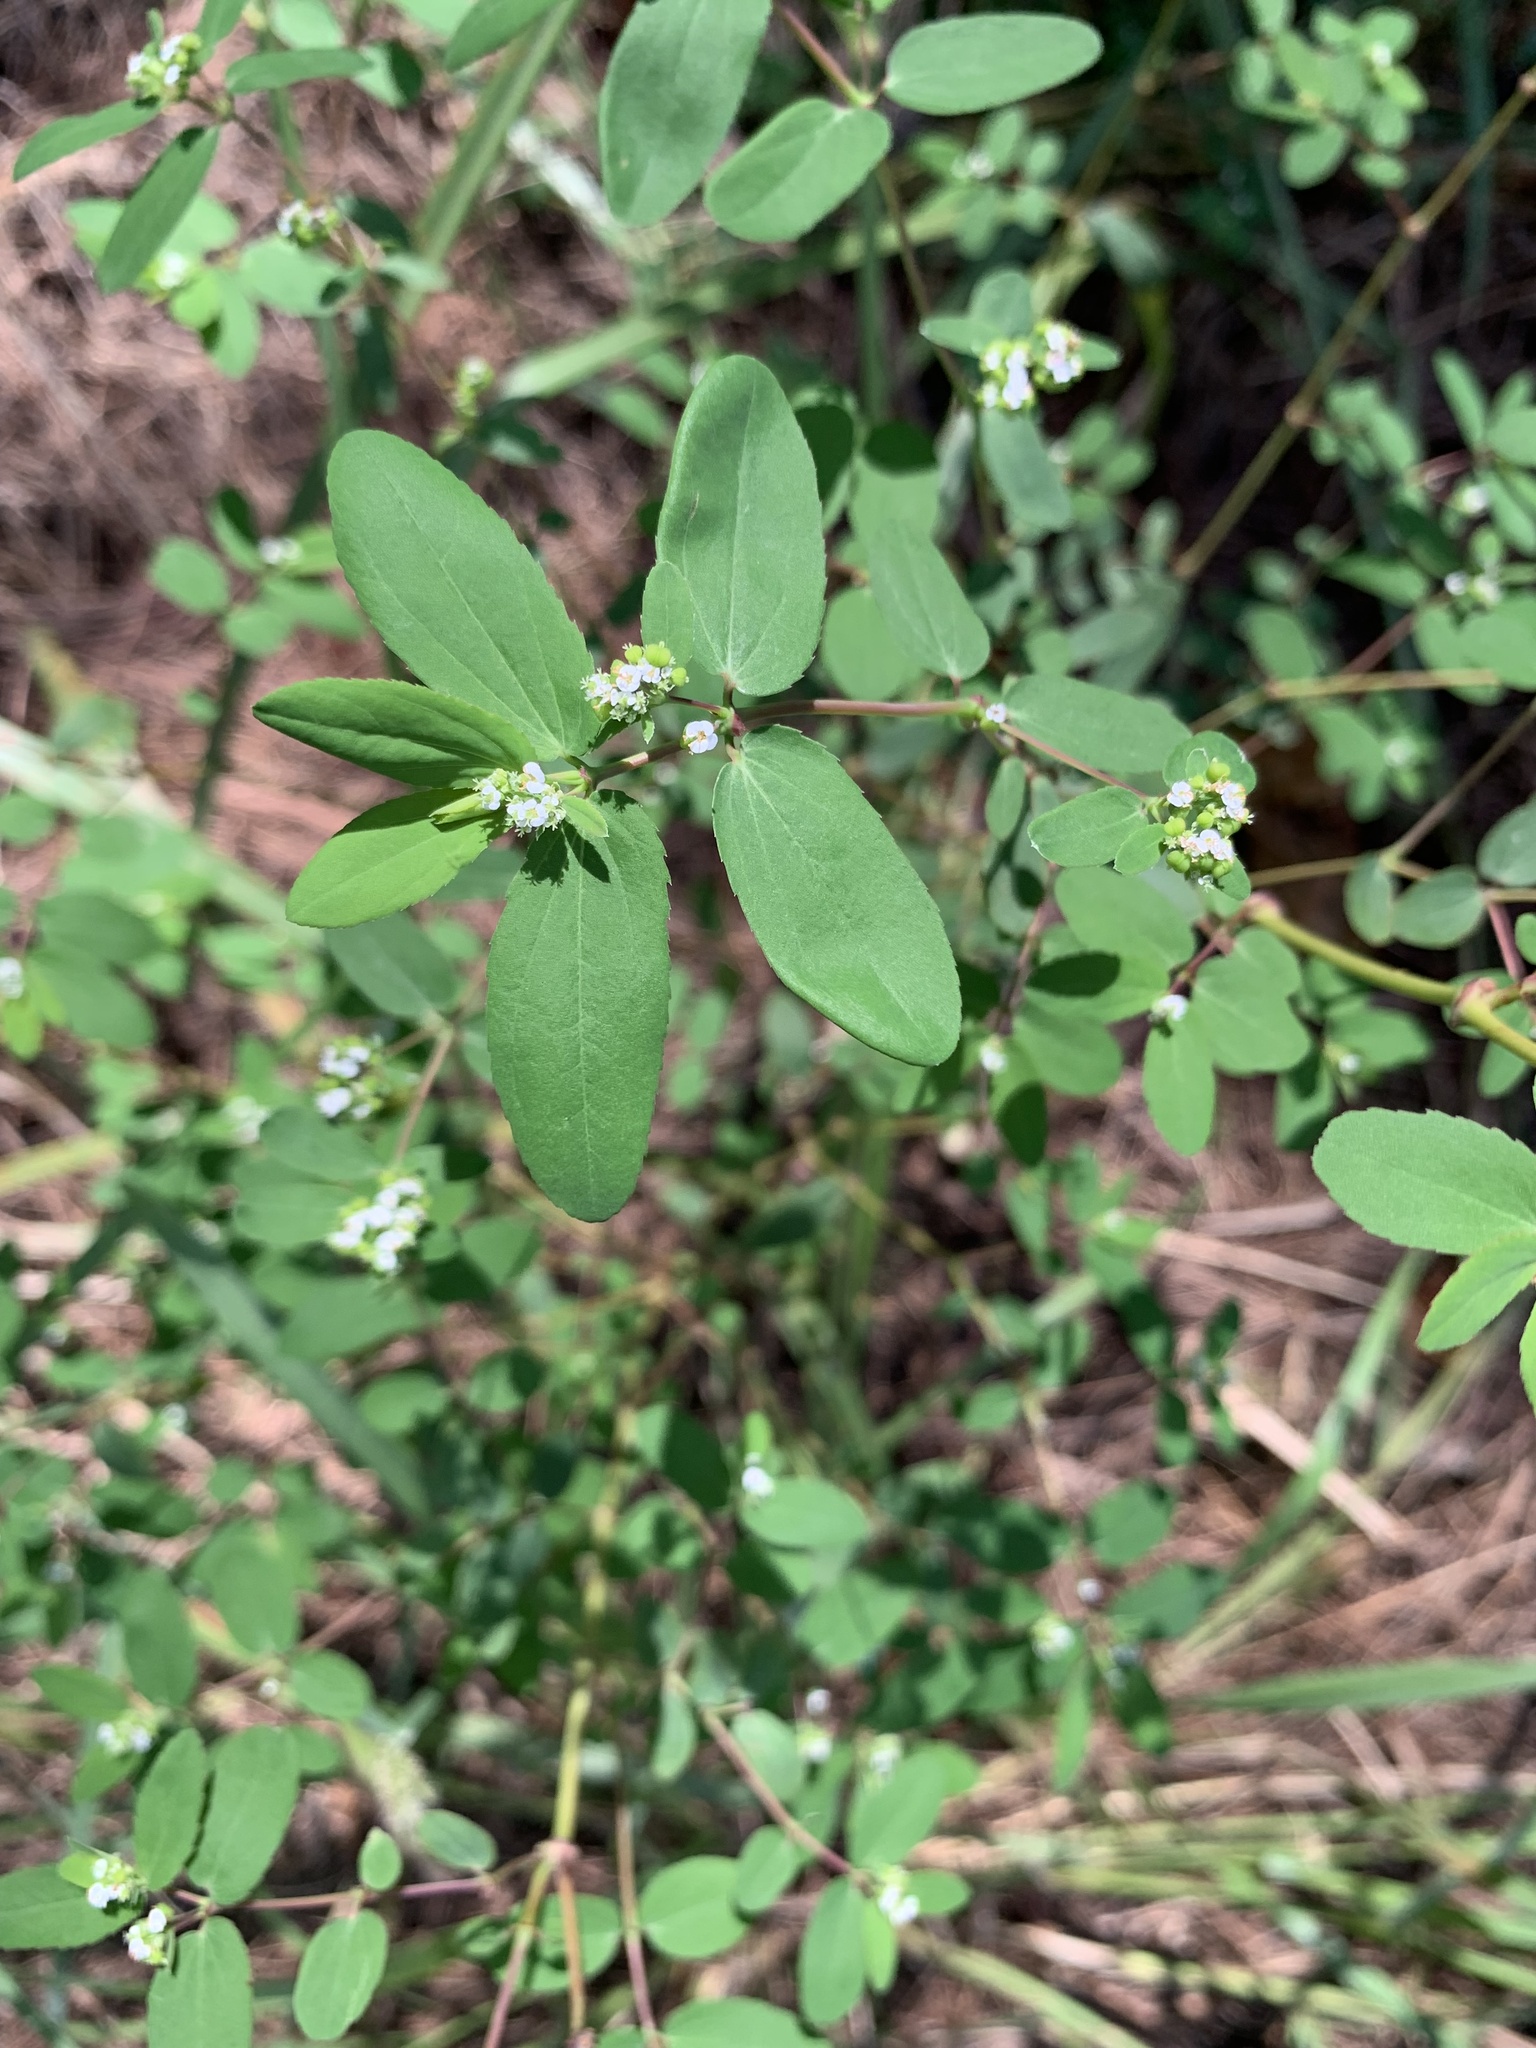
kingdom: Plantae
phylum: Tracheophyta
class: Magnoliopsida
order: Malpighiales
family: Euphorbiaceae
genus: Euphorbia
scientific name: Euphorbia hypericifolia
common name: Graceful sandmat
